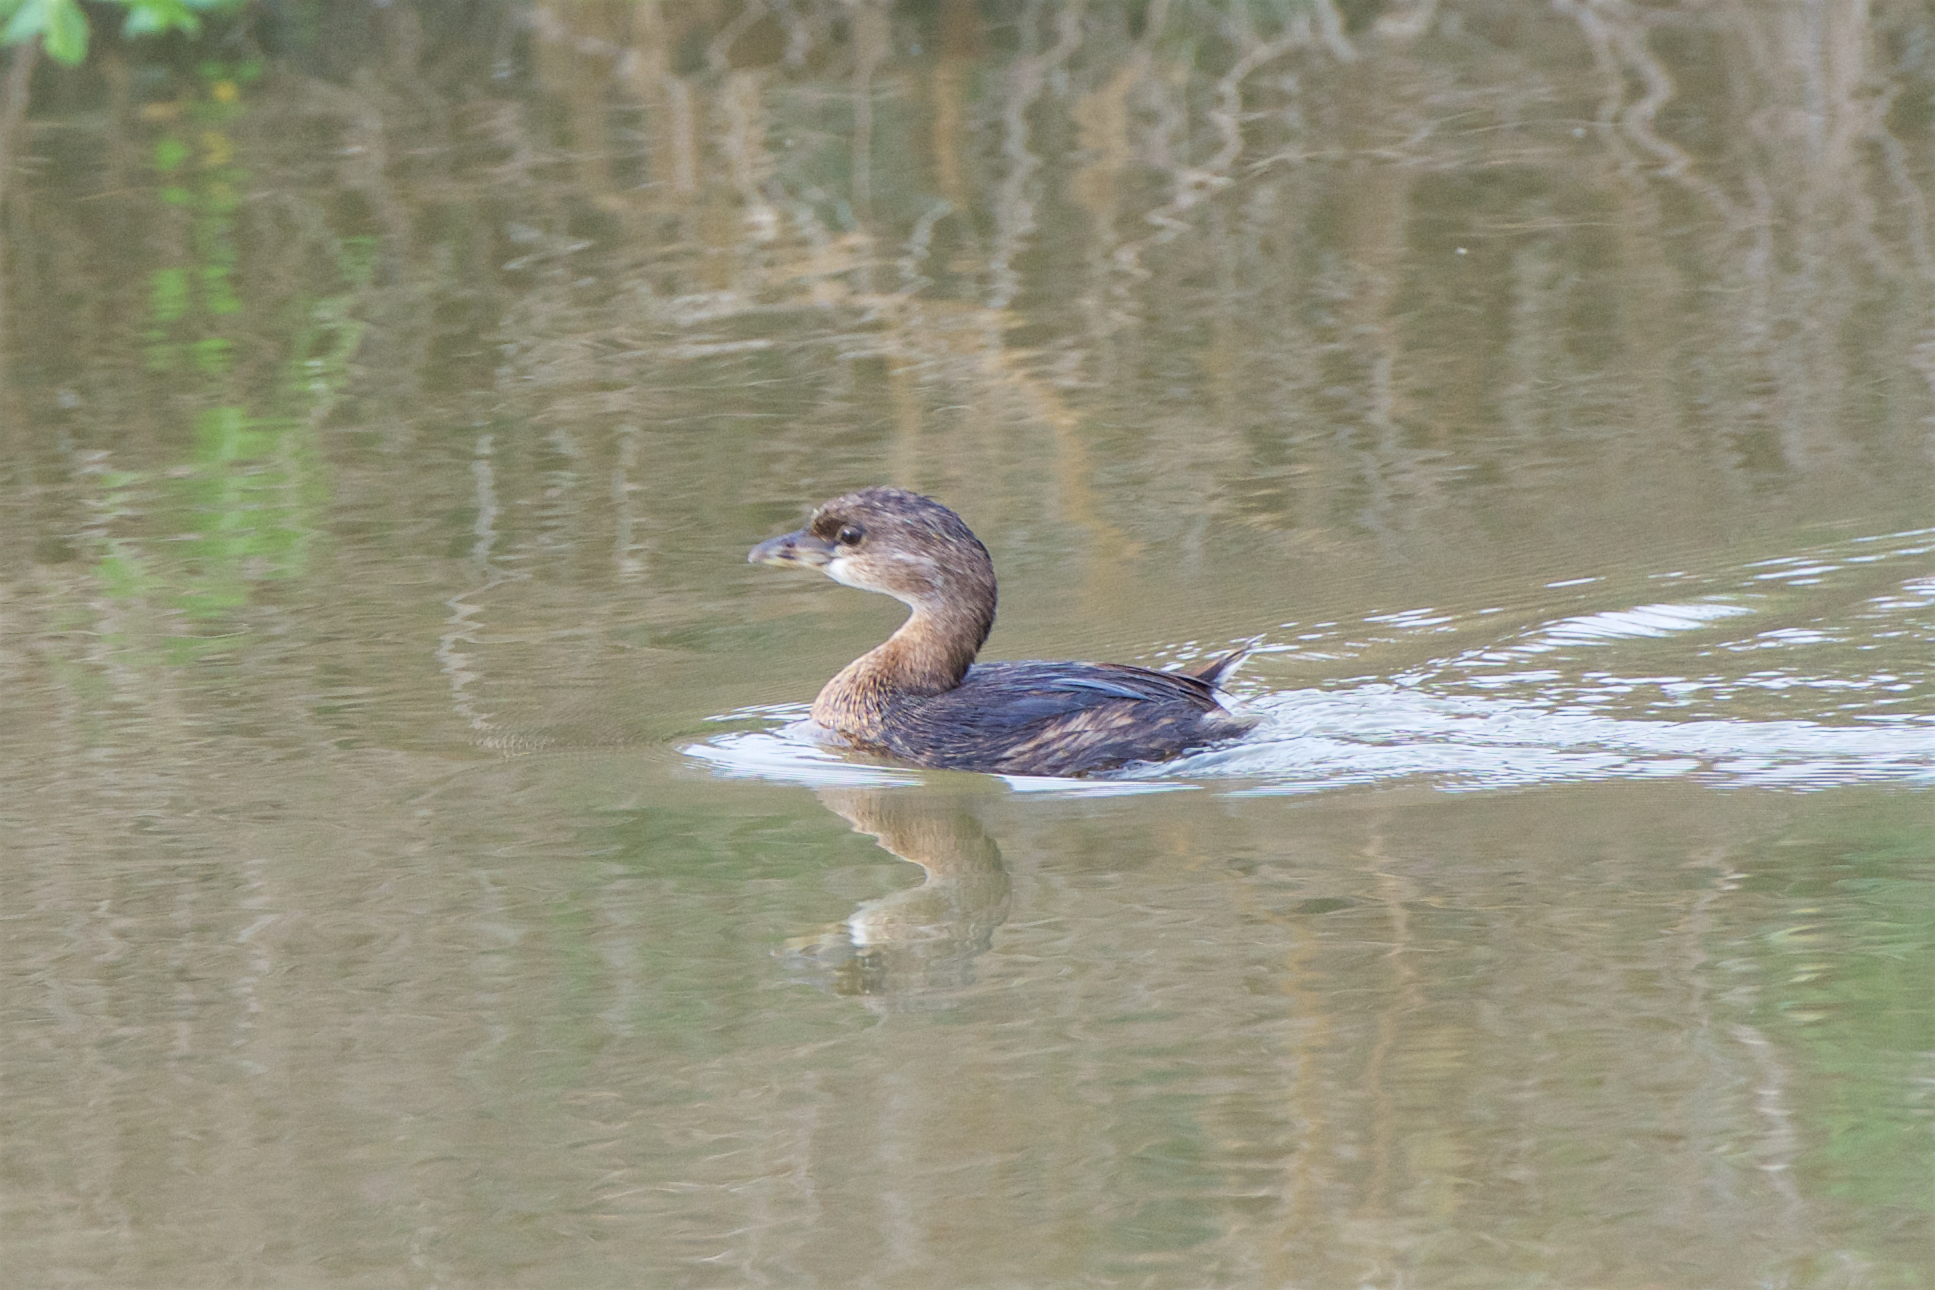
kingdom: Animalia
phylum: Chordata
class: Aves
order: Podicipediformes
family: Podicipedidae
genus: Podilymbus
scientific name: Podilymbus podiceps
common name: Pied-billed grebe
